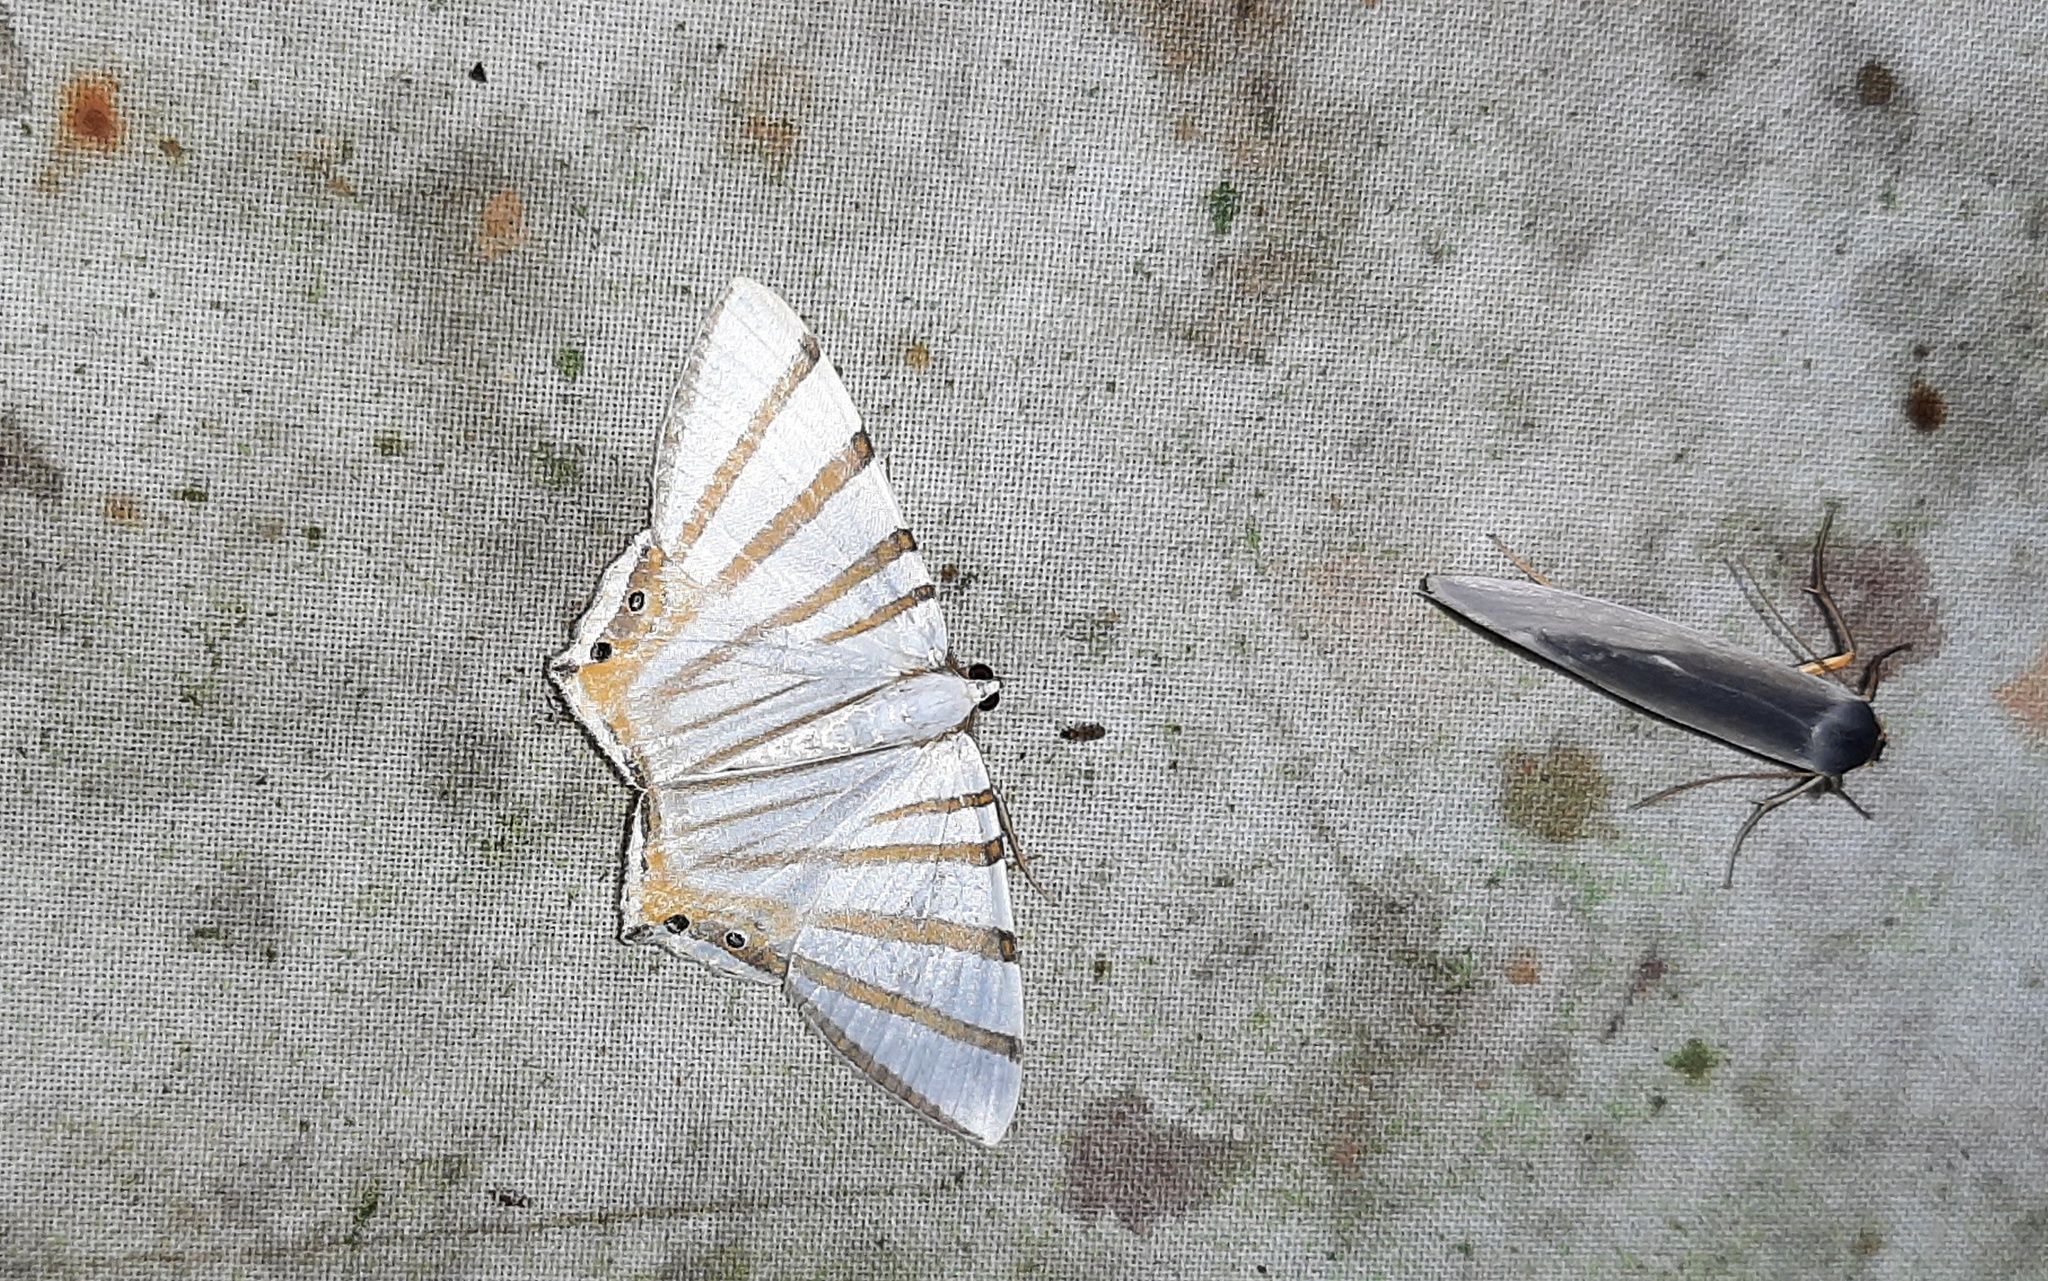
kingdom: Animalia
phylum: Arthropoda
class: Insecta
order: Lepidoptera
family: Geometridae
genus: Opisthoxia
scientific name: Opisthoxia metargyria
